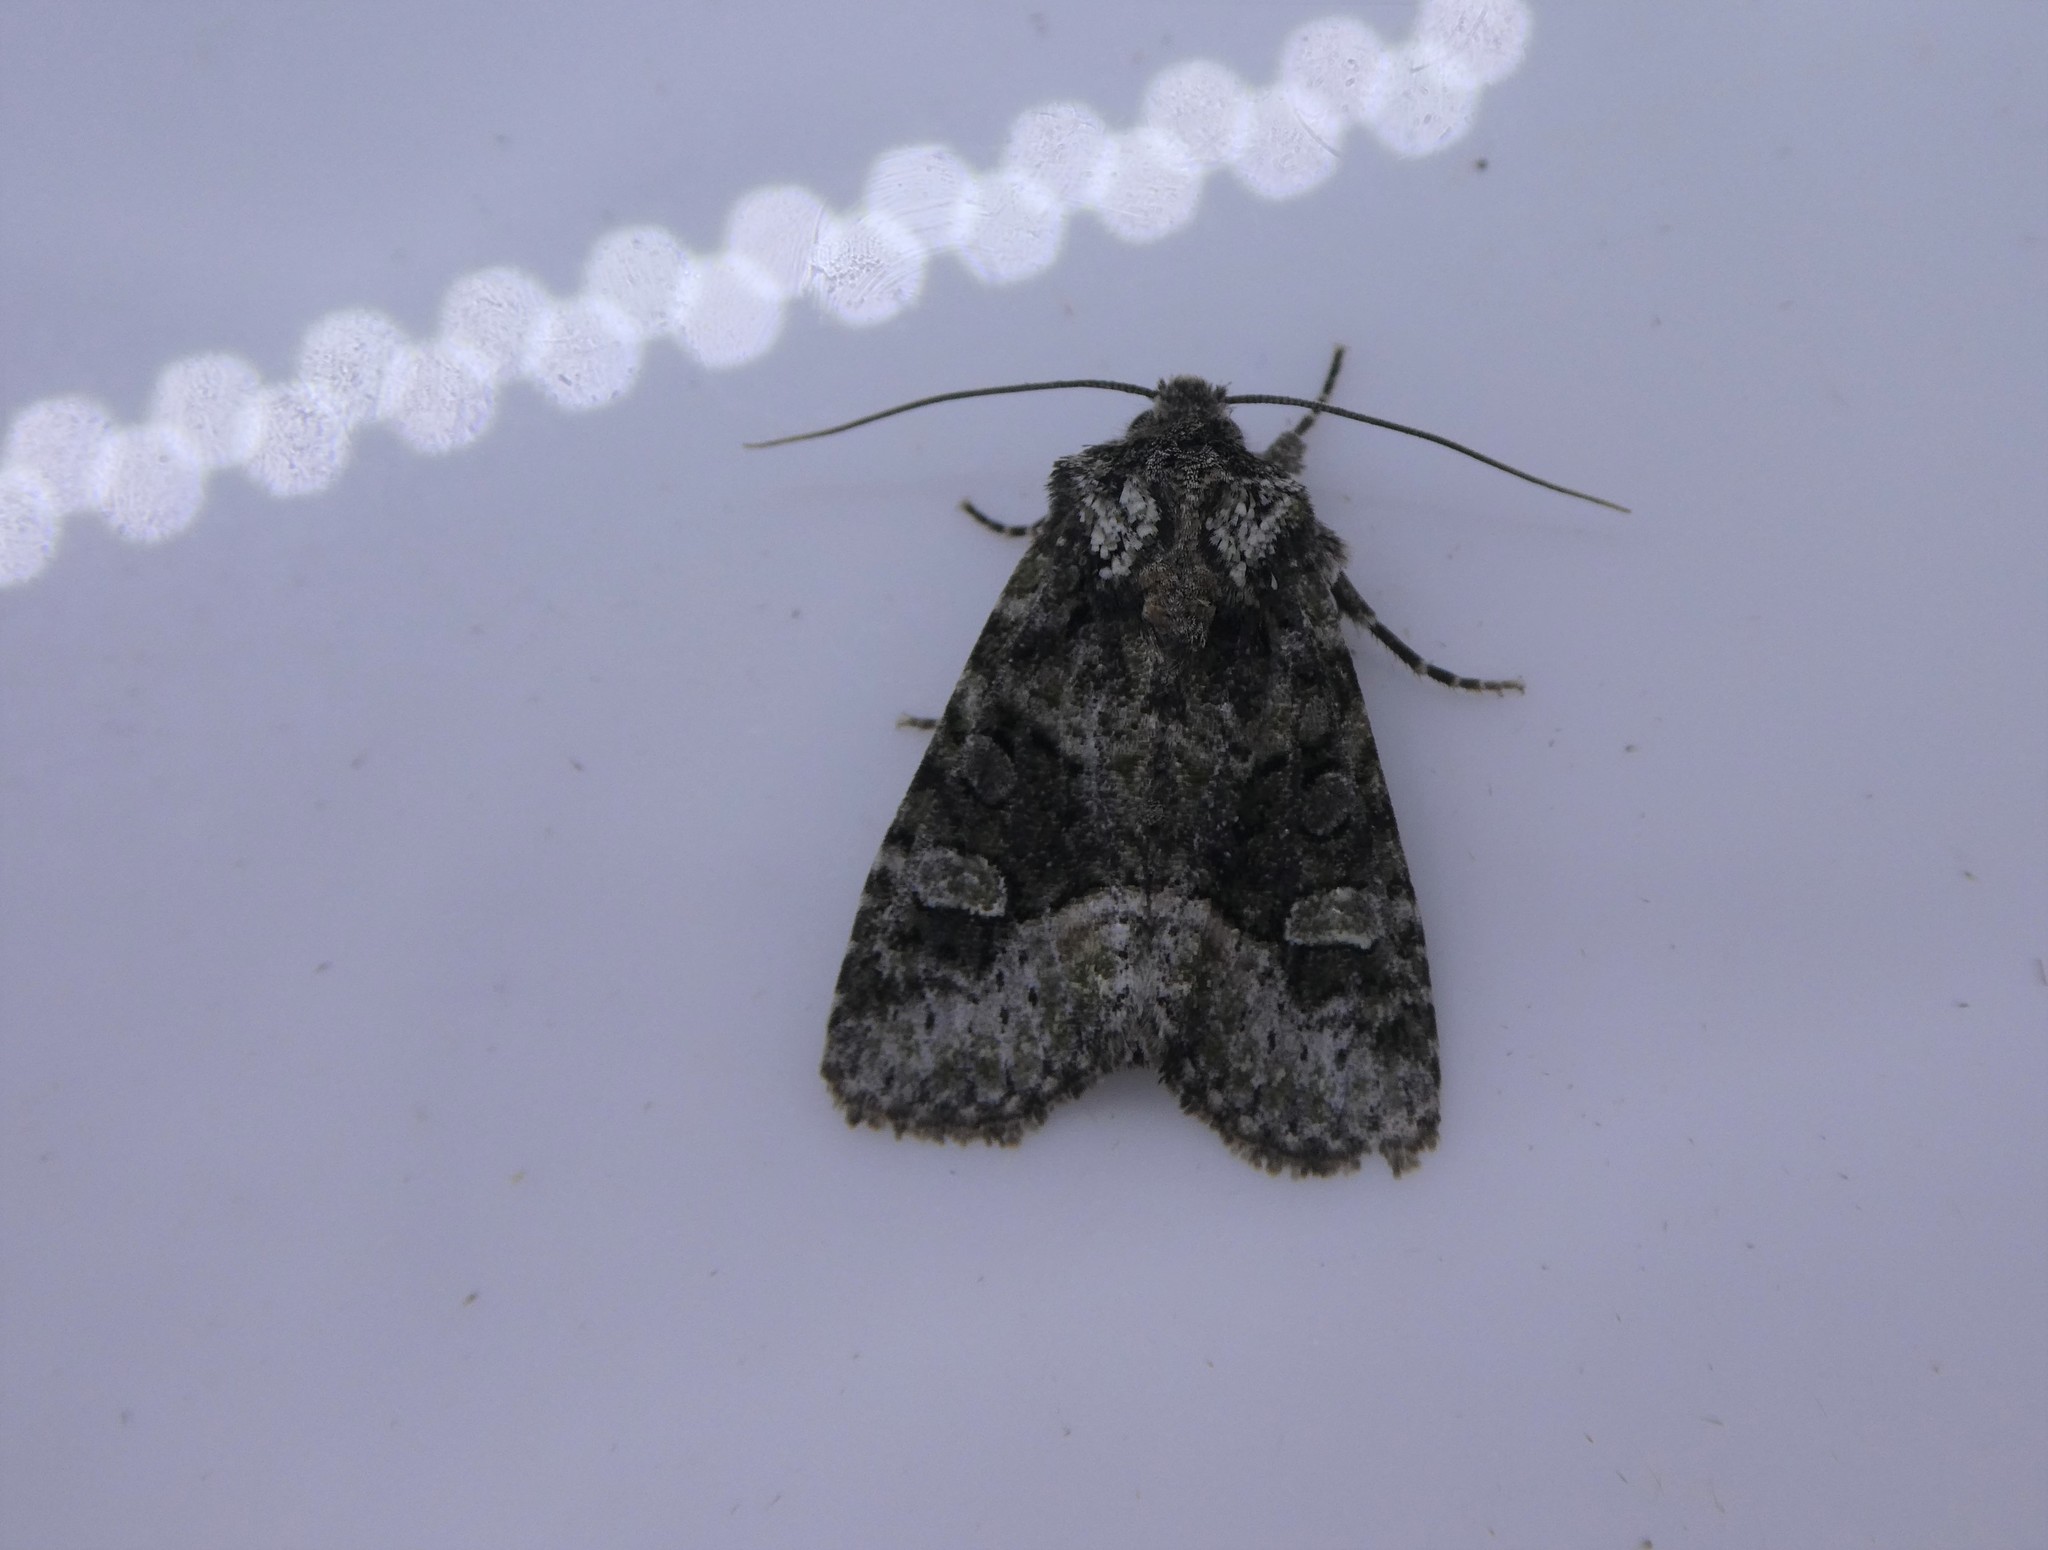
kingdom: Animalia
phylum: Arthropoda
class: Insecta
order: Lepidoptera
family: Noctuidae
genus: Lacinipolia
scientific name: Lacinipolia olivacea
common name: Olive arches moth
